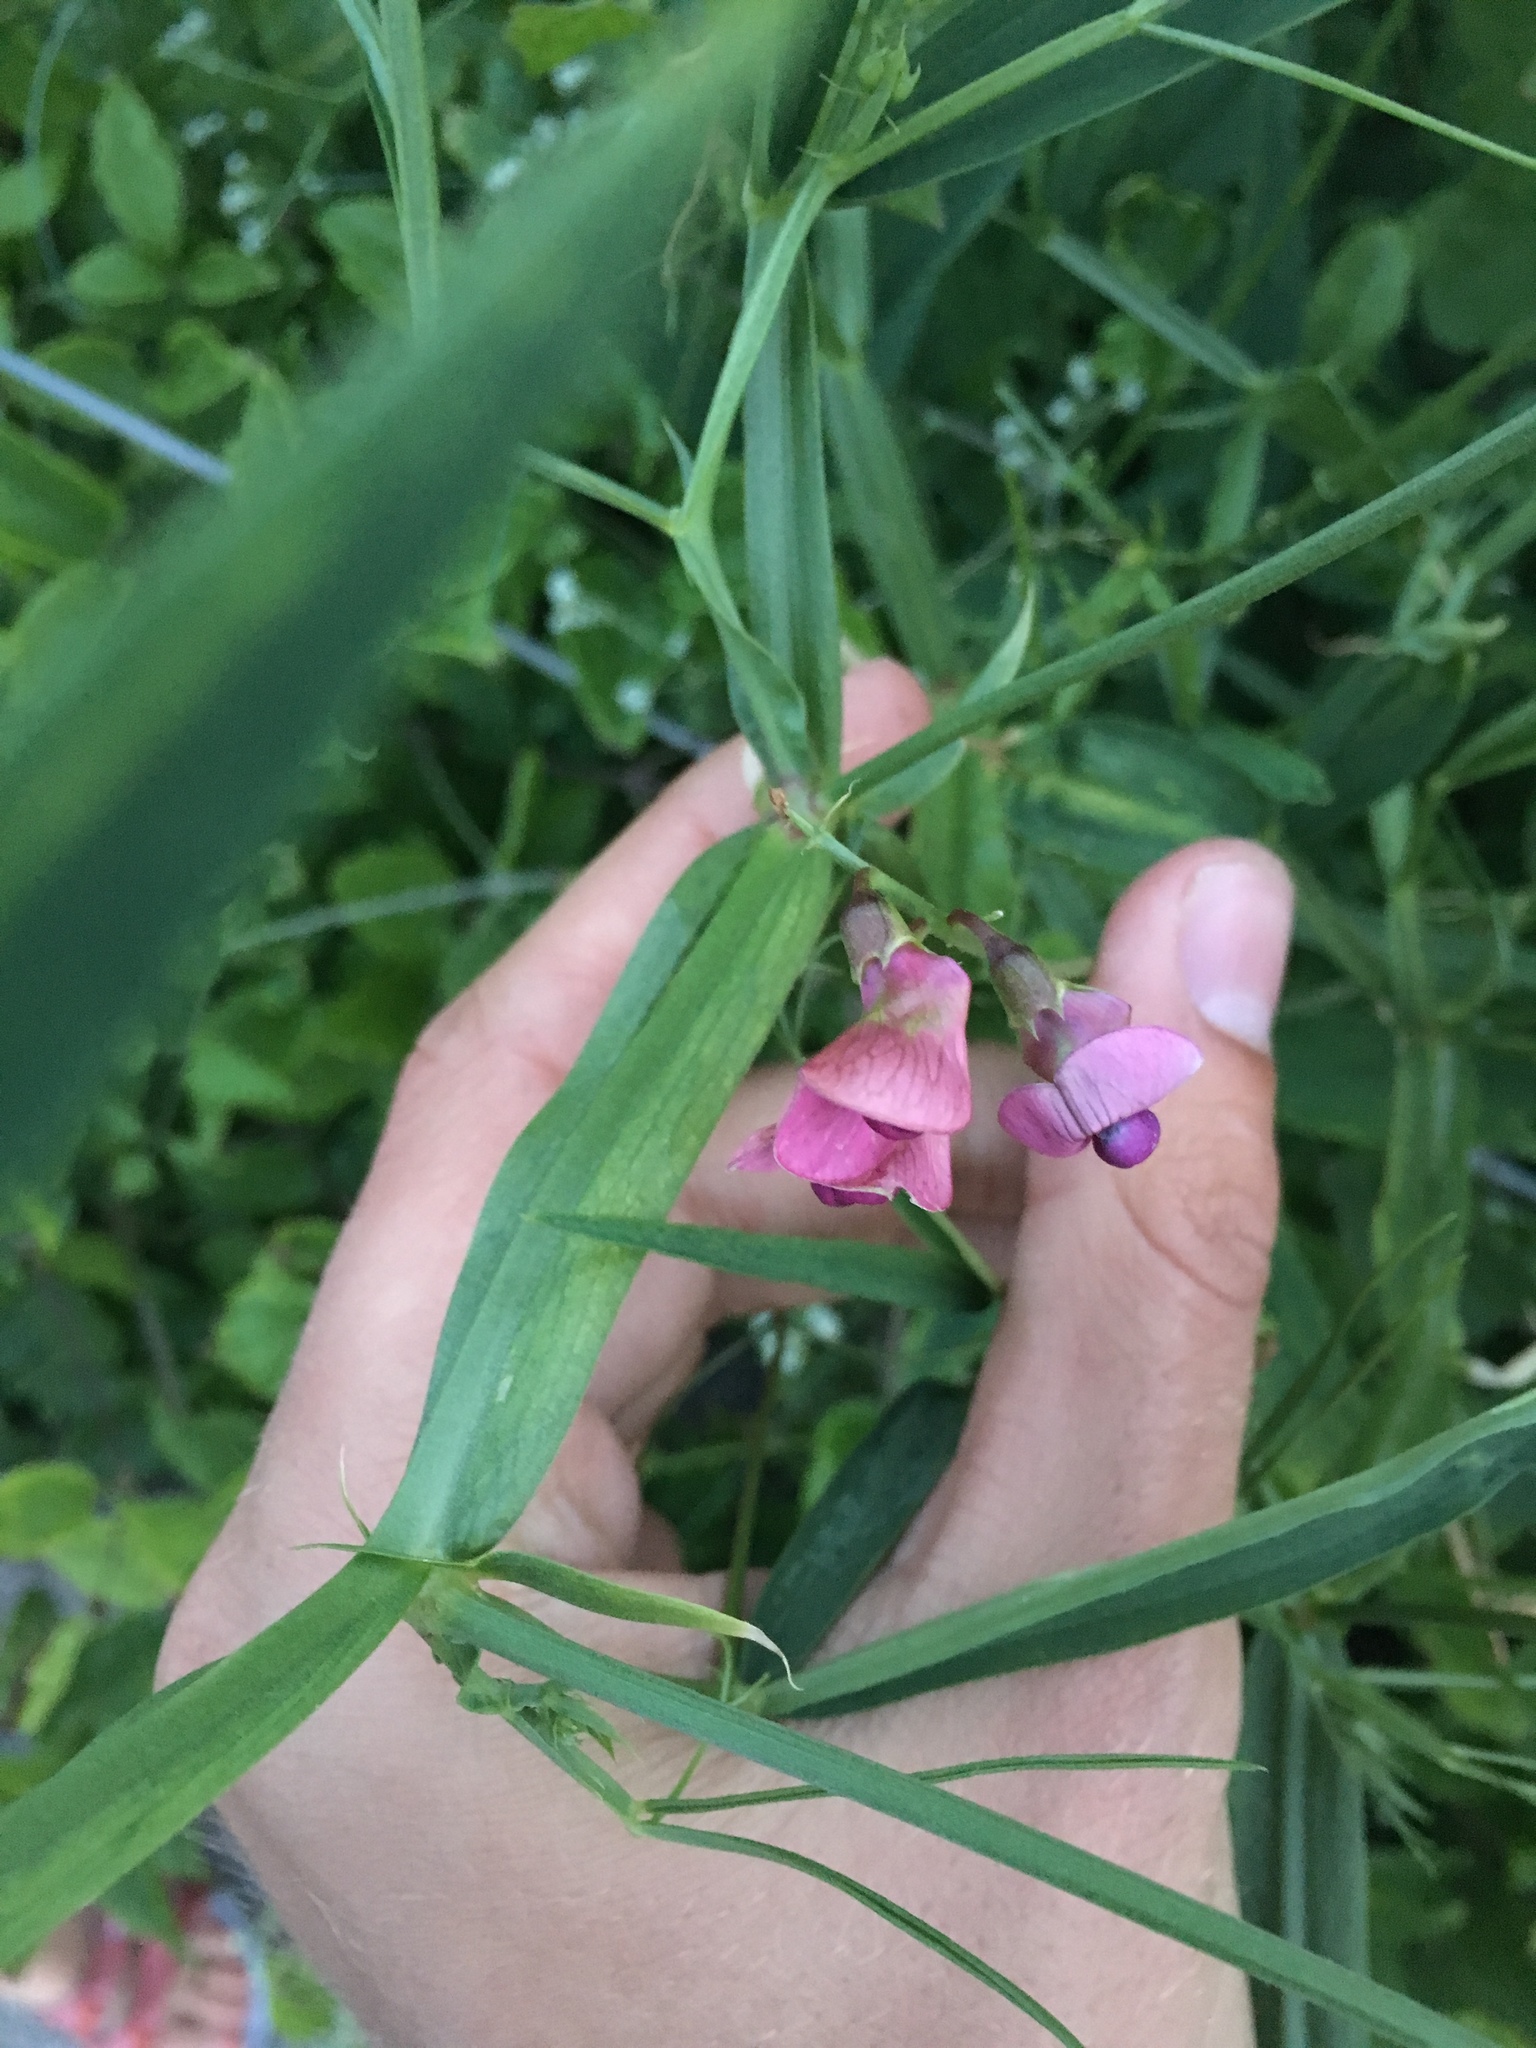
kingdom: Plantae
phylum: Tracheophyta
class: Magnoliopsida
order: Fabales
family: Fabaceae
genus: Lathyrus
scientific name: Lathyrus sylvestris
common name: Flat pea
